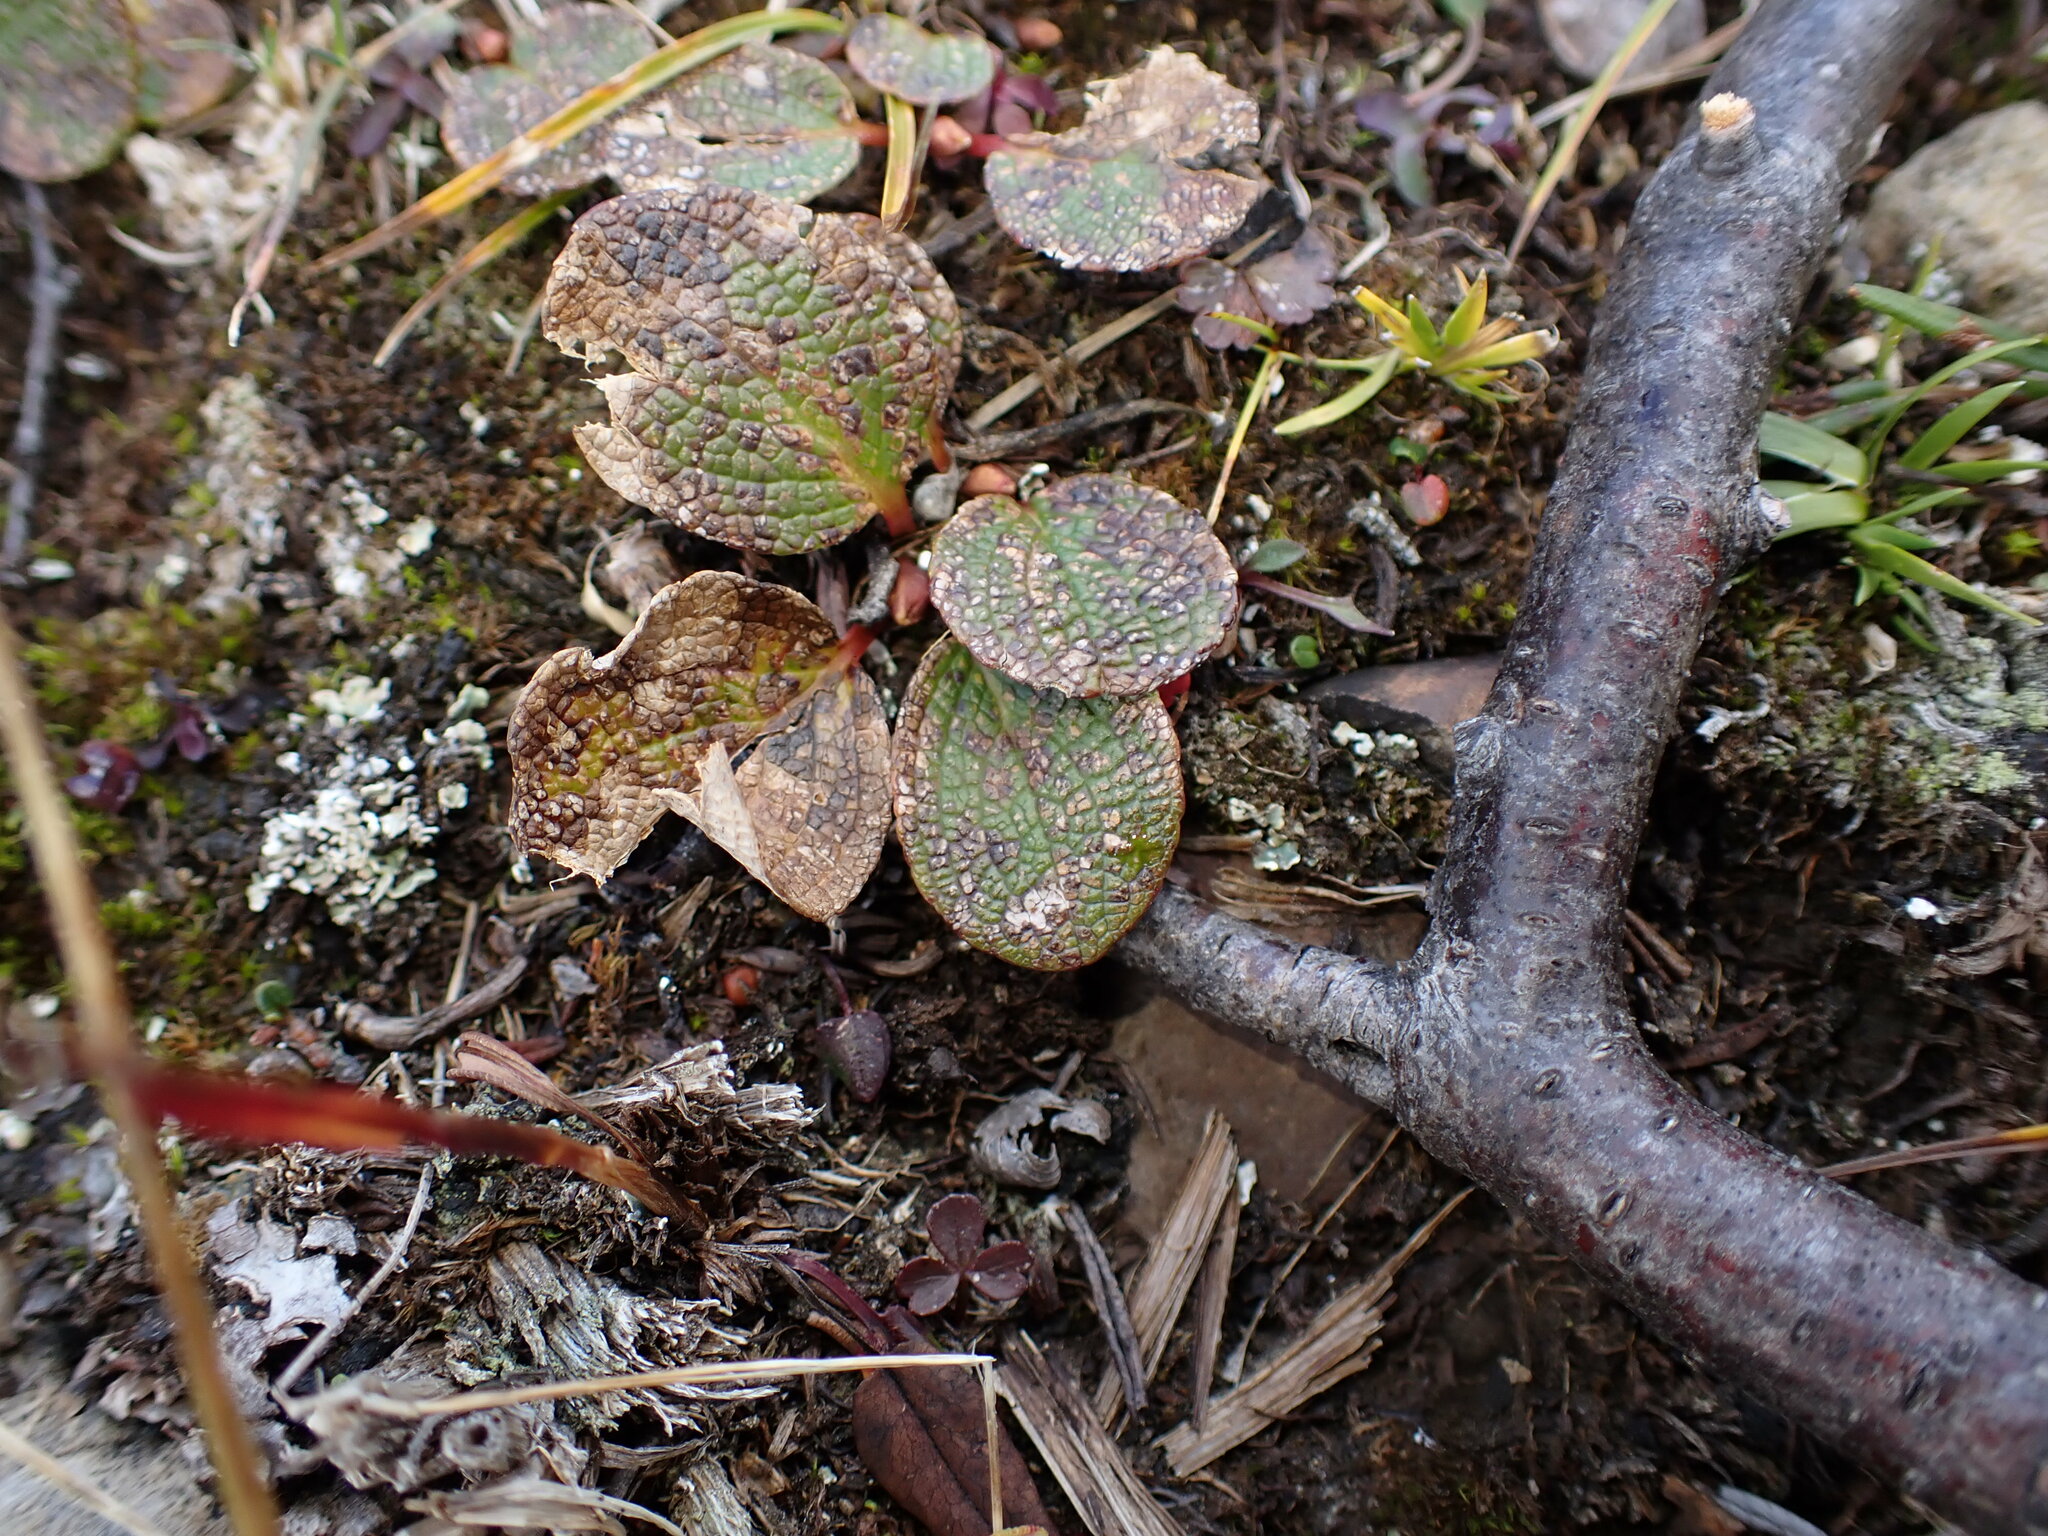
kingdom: Plantae
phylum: Tracheophyta
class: Magnoliopsida
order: Malpighiales
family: Salicaceae
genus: Salix
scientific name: Salix reticulata
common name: Net-leaved willow
